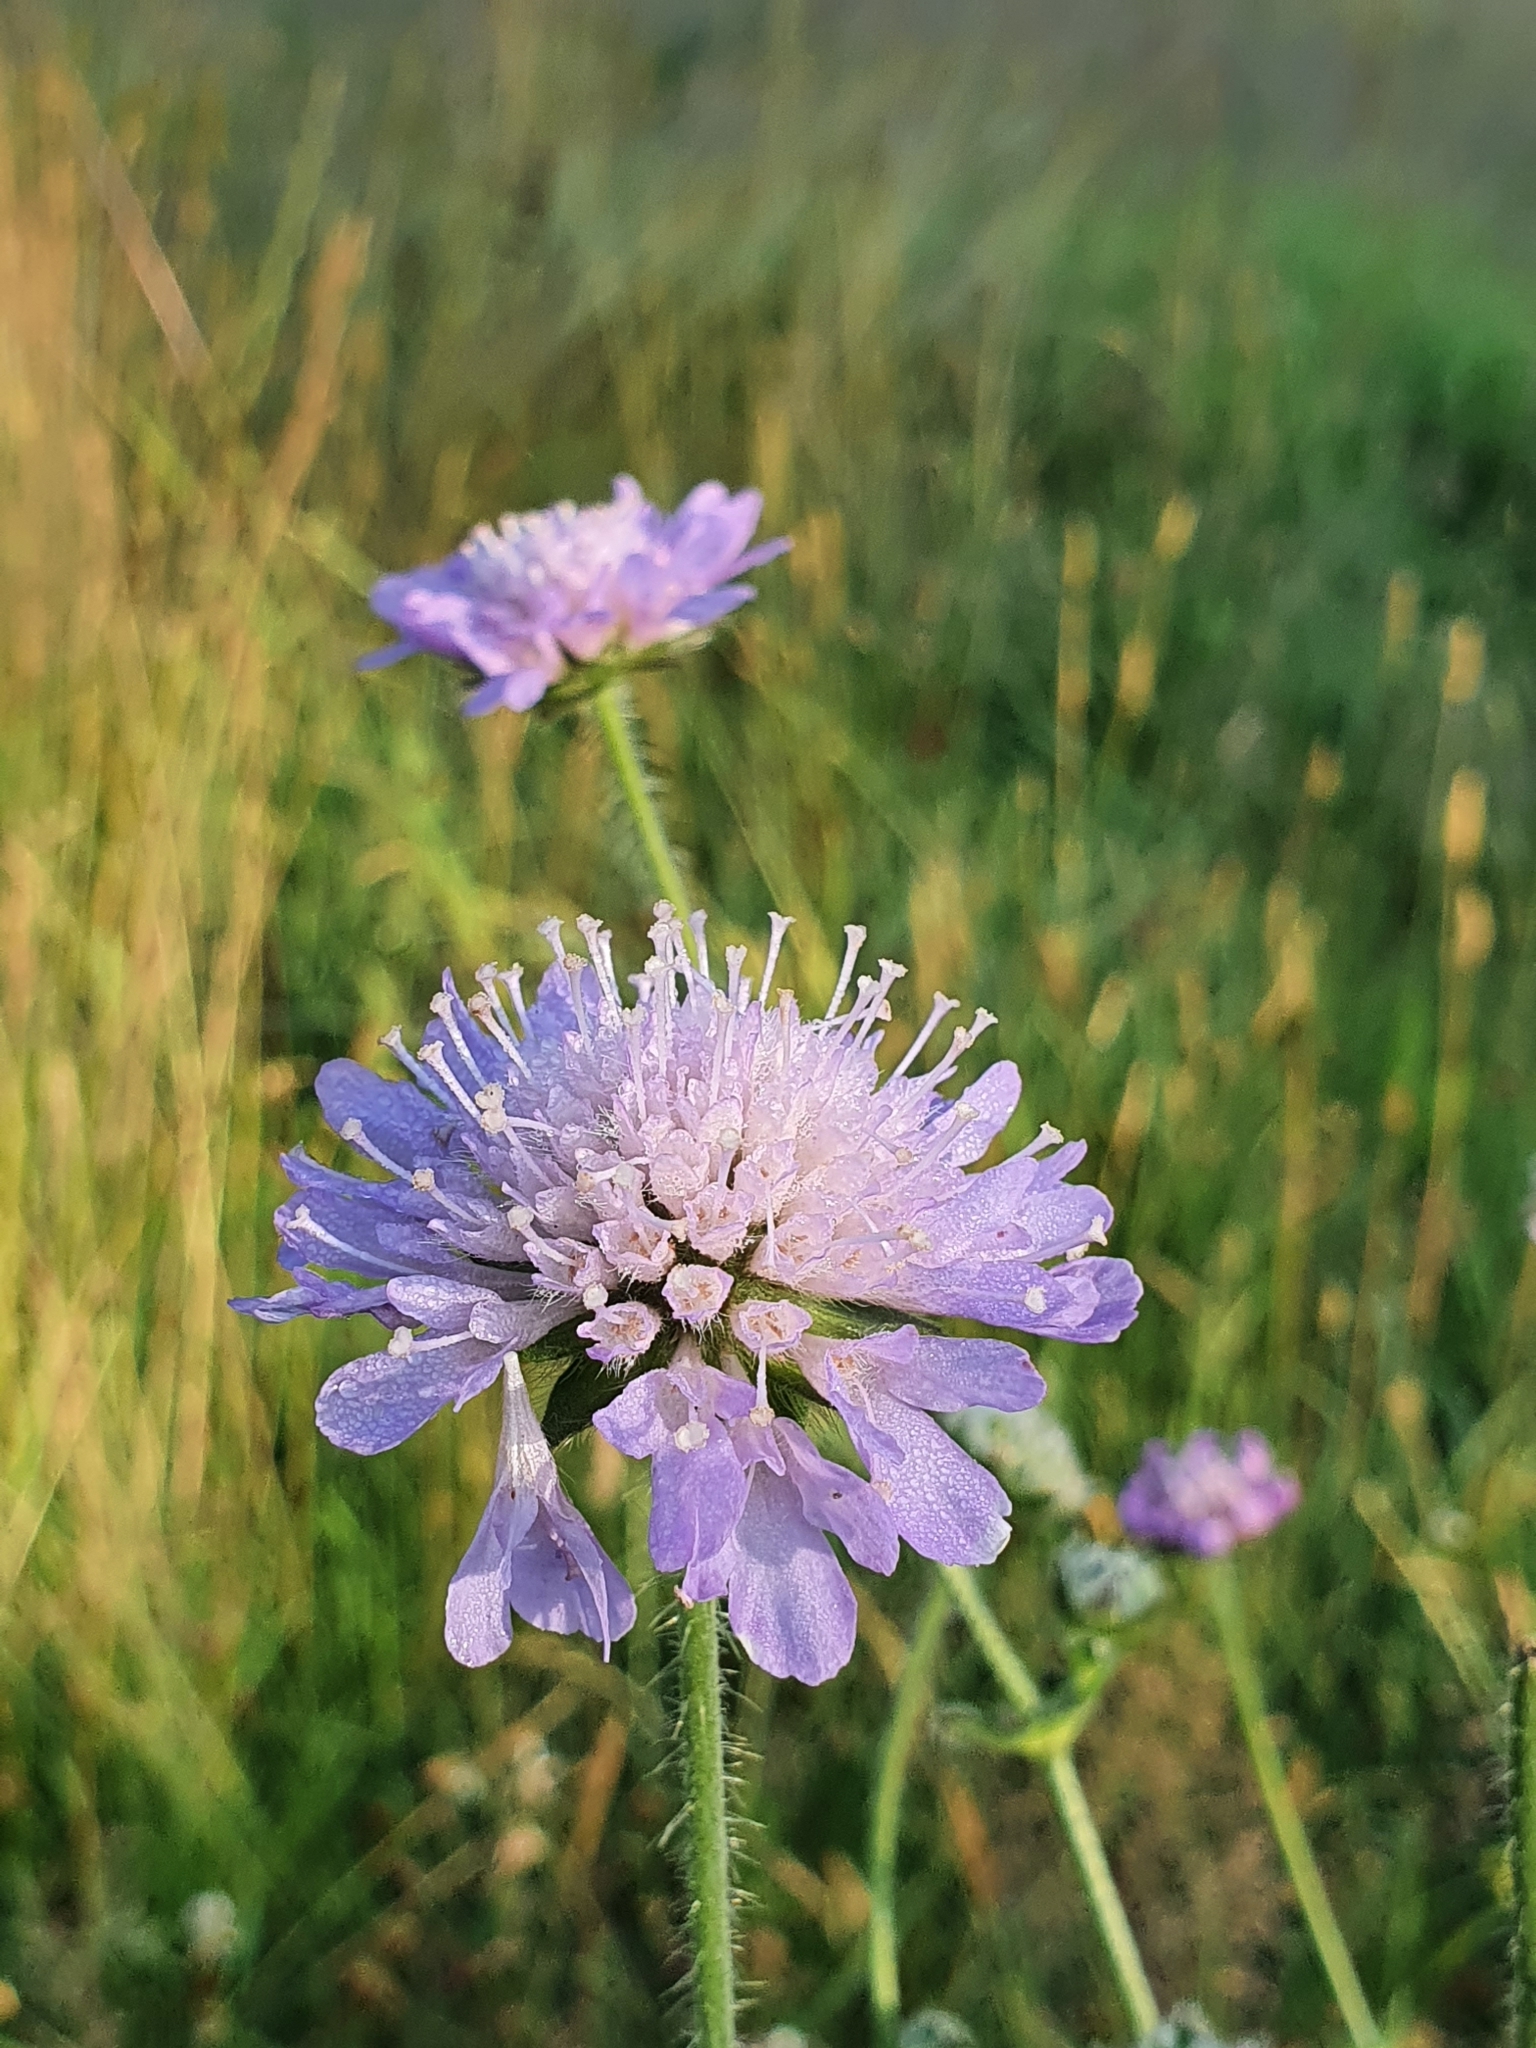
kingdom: Plantae
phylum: Tracheophyta
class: Magnoliopsida
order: Dipsacales
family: Caprifoliaceae
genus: Knautia
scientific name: Knautia arvensis
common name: Field scabiosa
